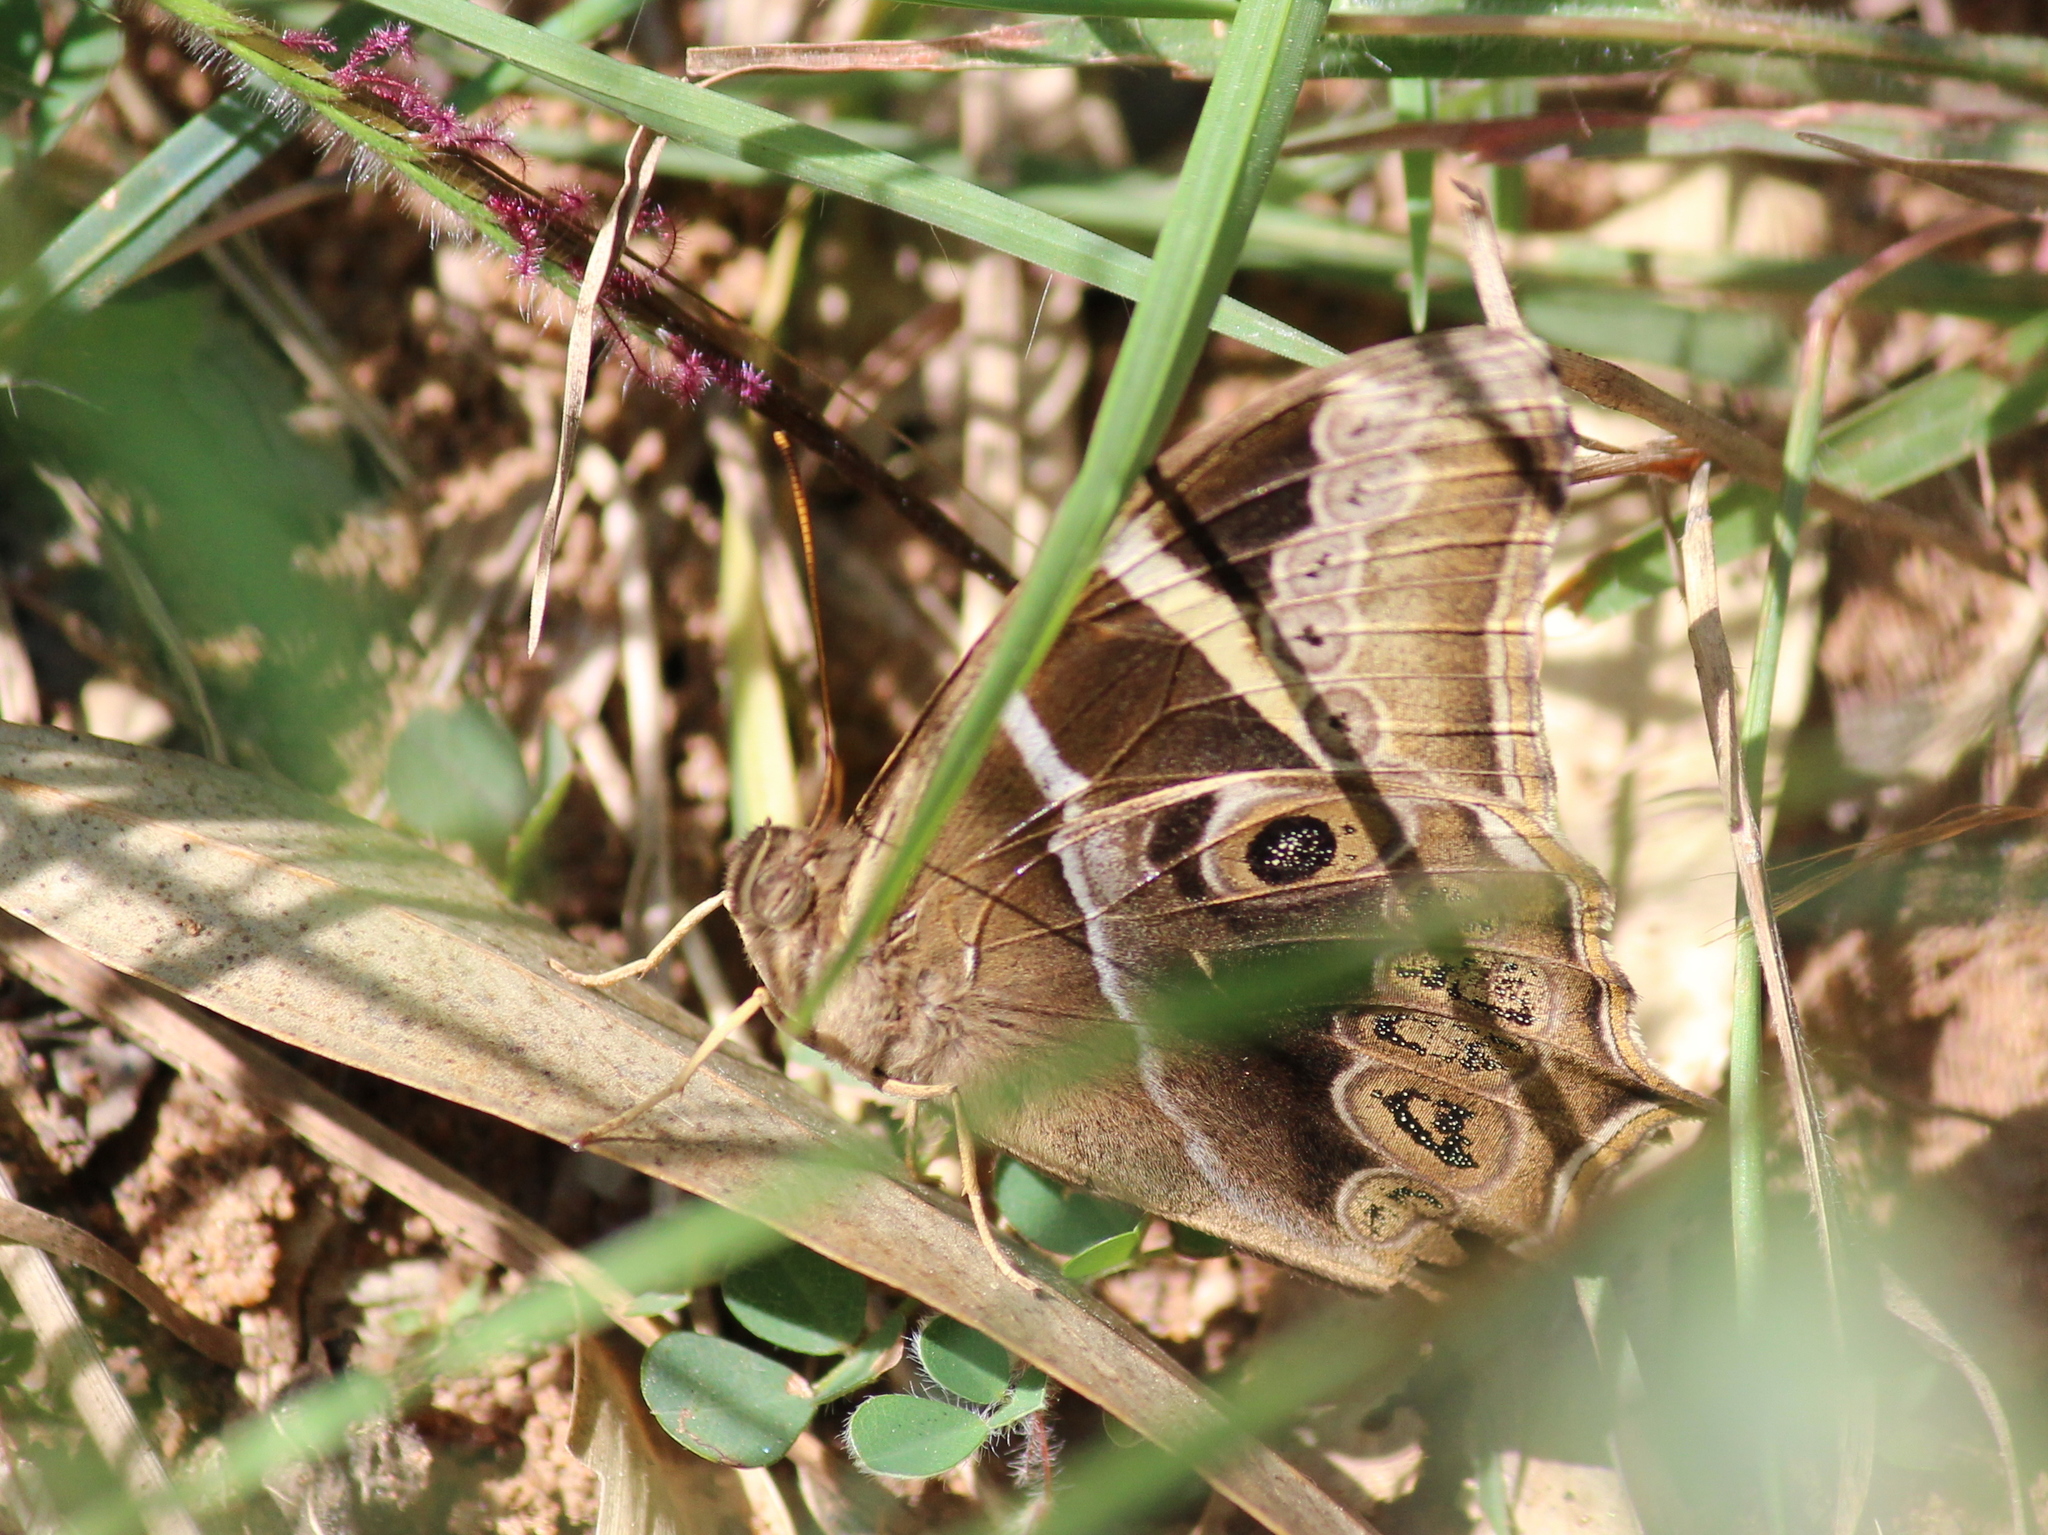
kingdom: Animalia
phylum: Arthropoda
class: Insecta
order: Lepidoptera
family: Nymphalidae
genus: Lethe
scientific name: Lethe europa
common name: Bamboo treebrown
